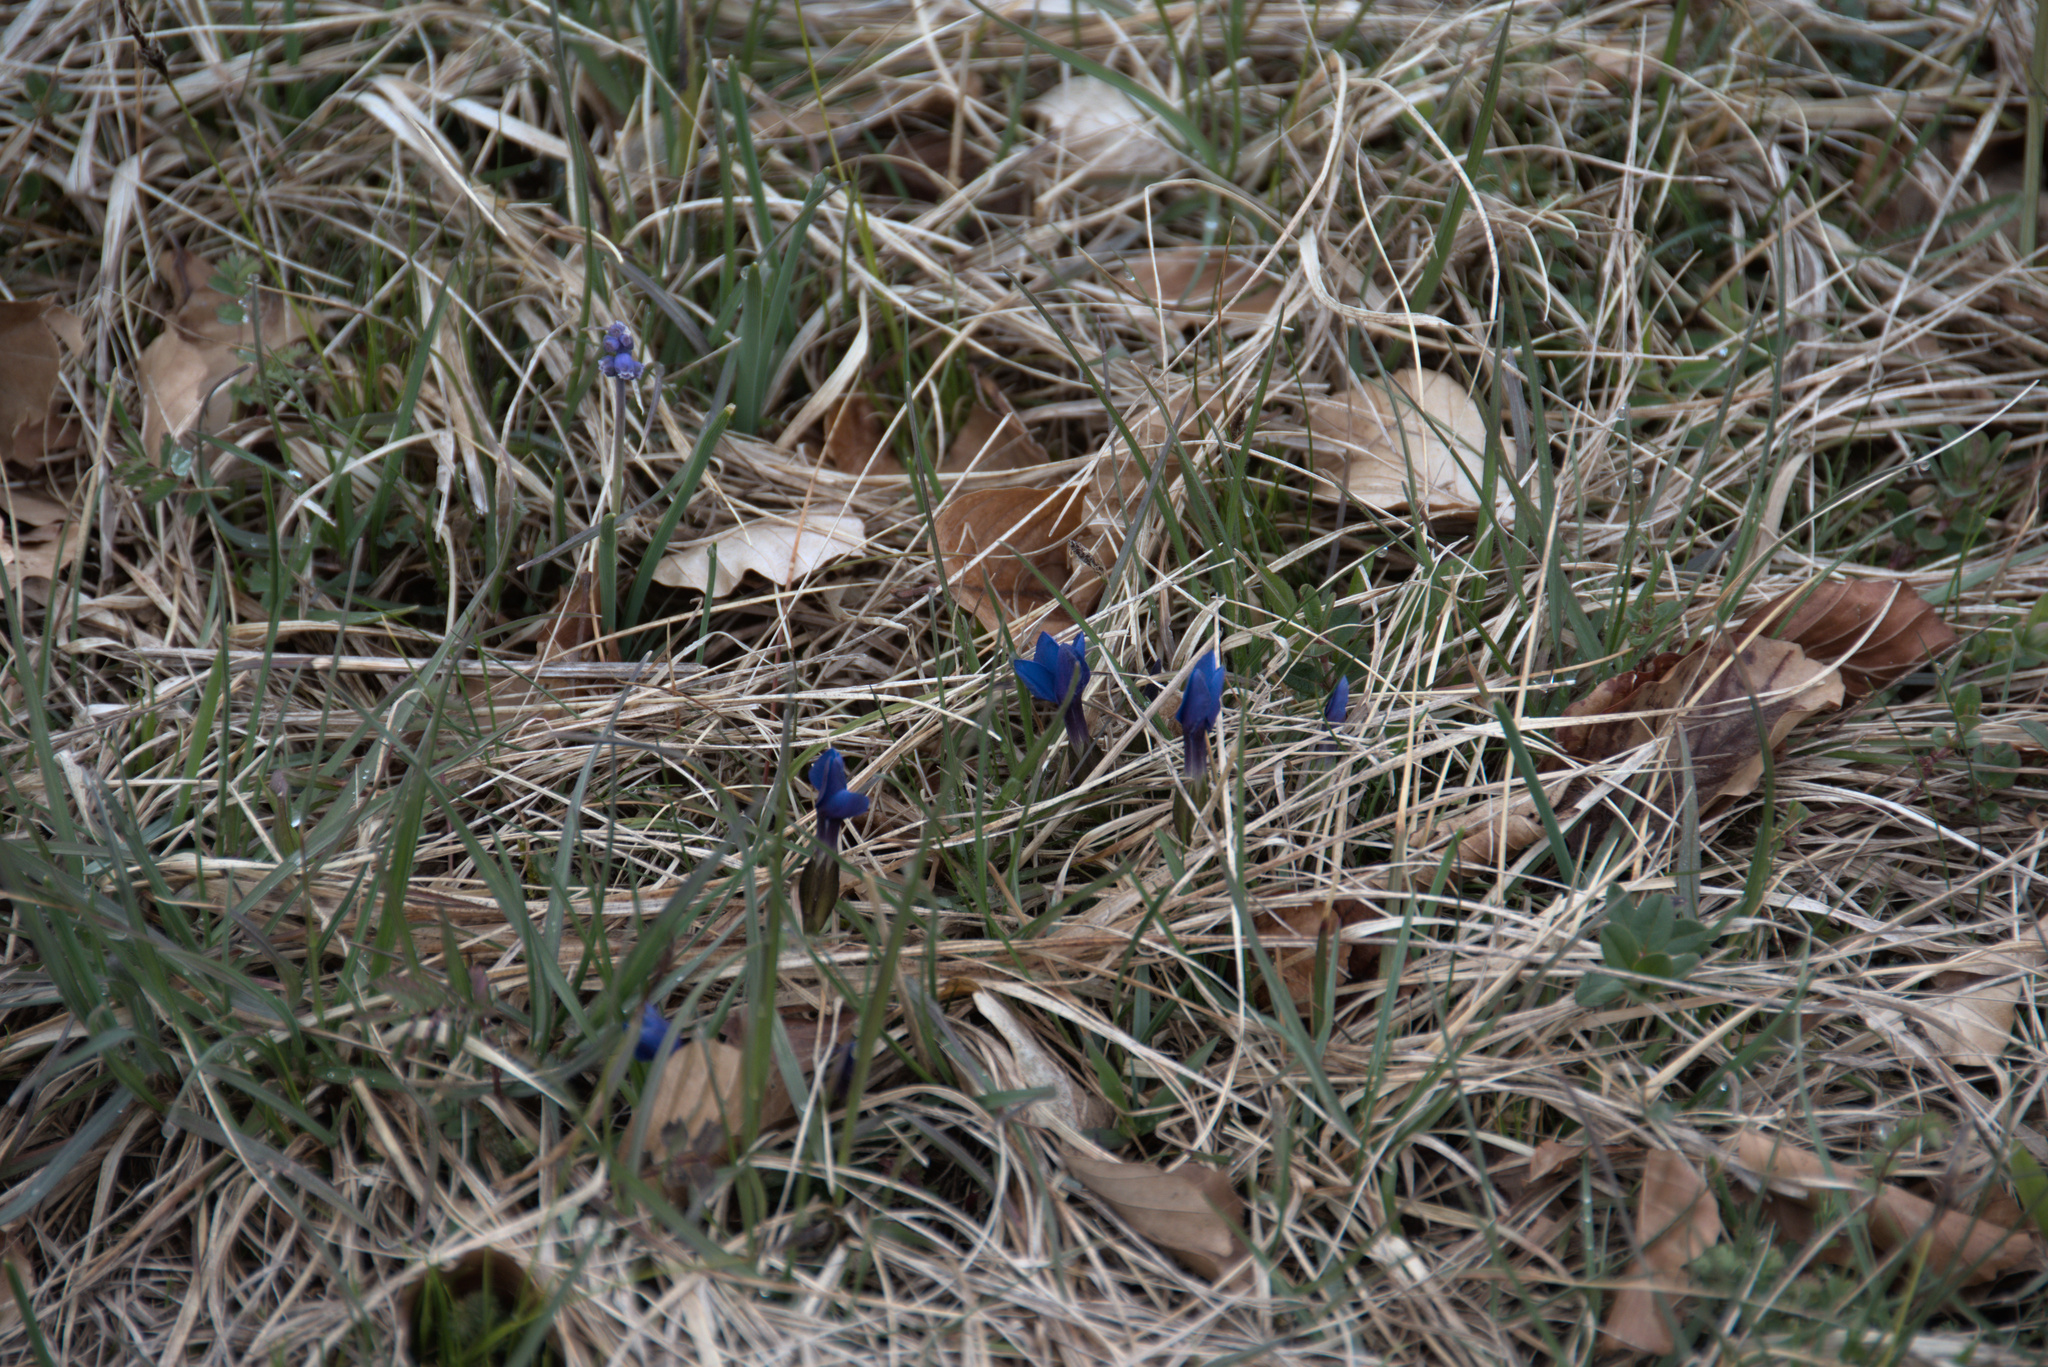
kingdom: Plantae
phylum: Tracheophyta
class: Magnoliopsida
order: Gentianales
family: Gentianaceae
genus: Gentiana
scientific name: Gentiana verna
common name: Spring gentian
